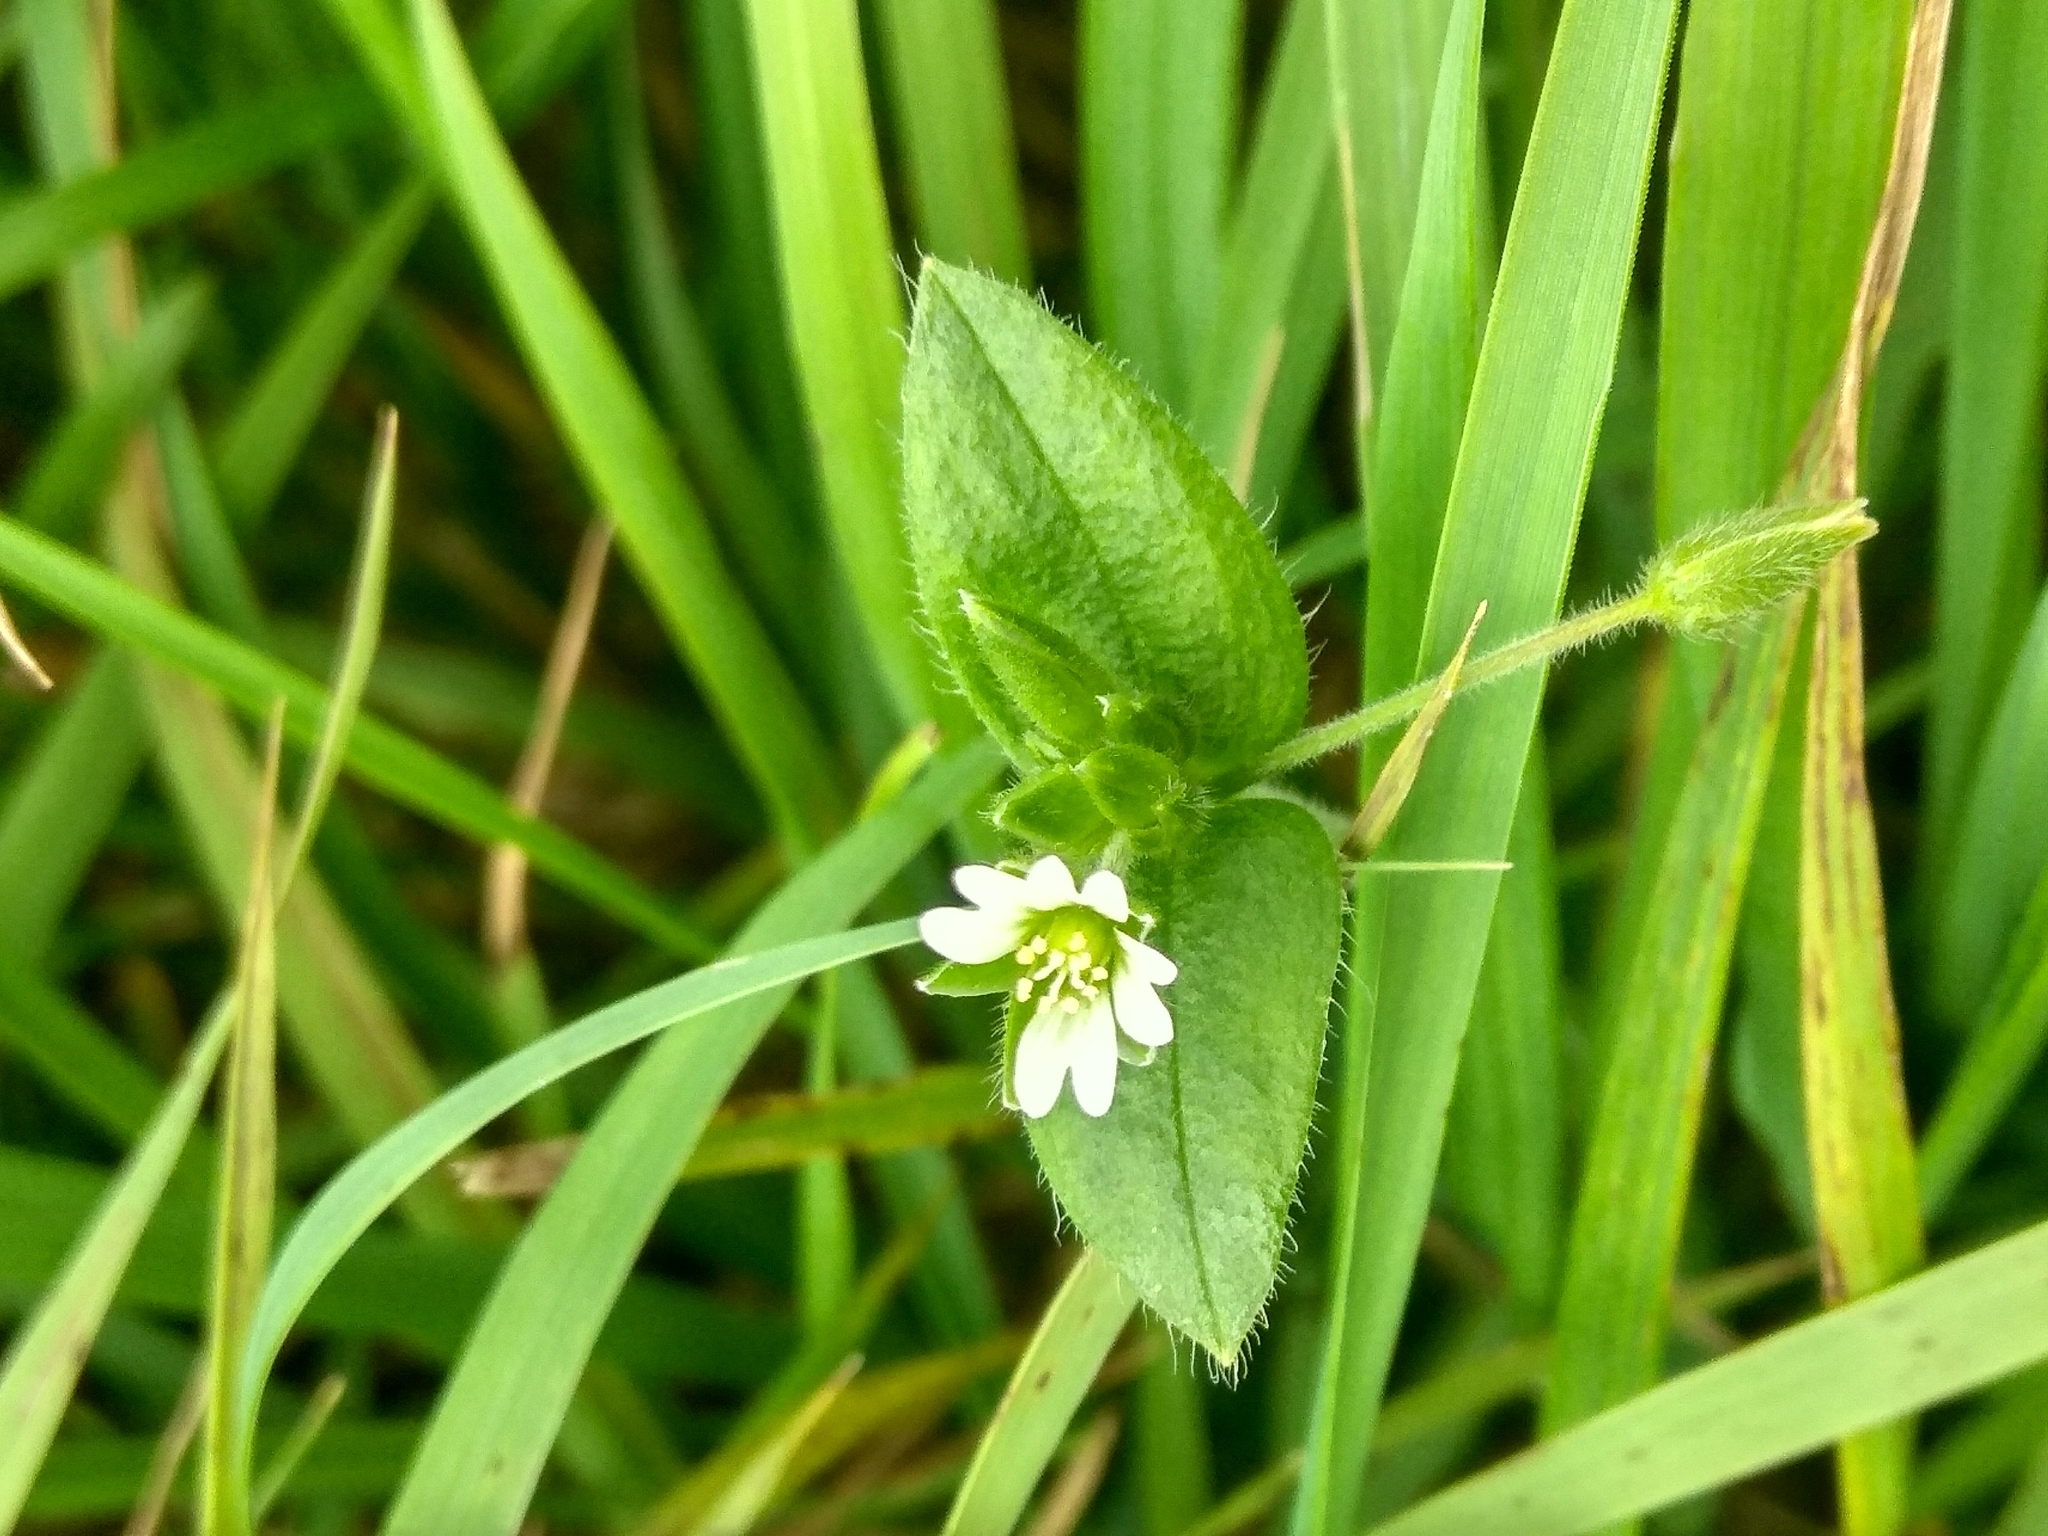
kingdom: Plantae
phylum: Tracheophyta
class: Magnoliopsida
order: Caryophyllales
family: Caryophyllaceae
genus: Cerastium
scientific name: Cerastium holosteoides
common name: Big chickweed
